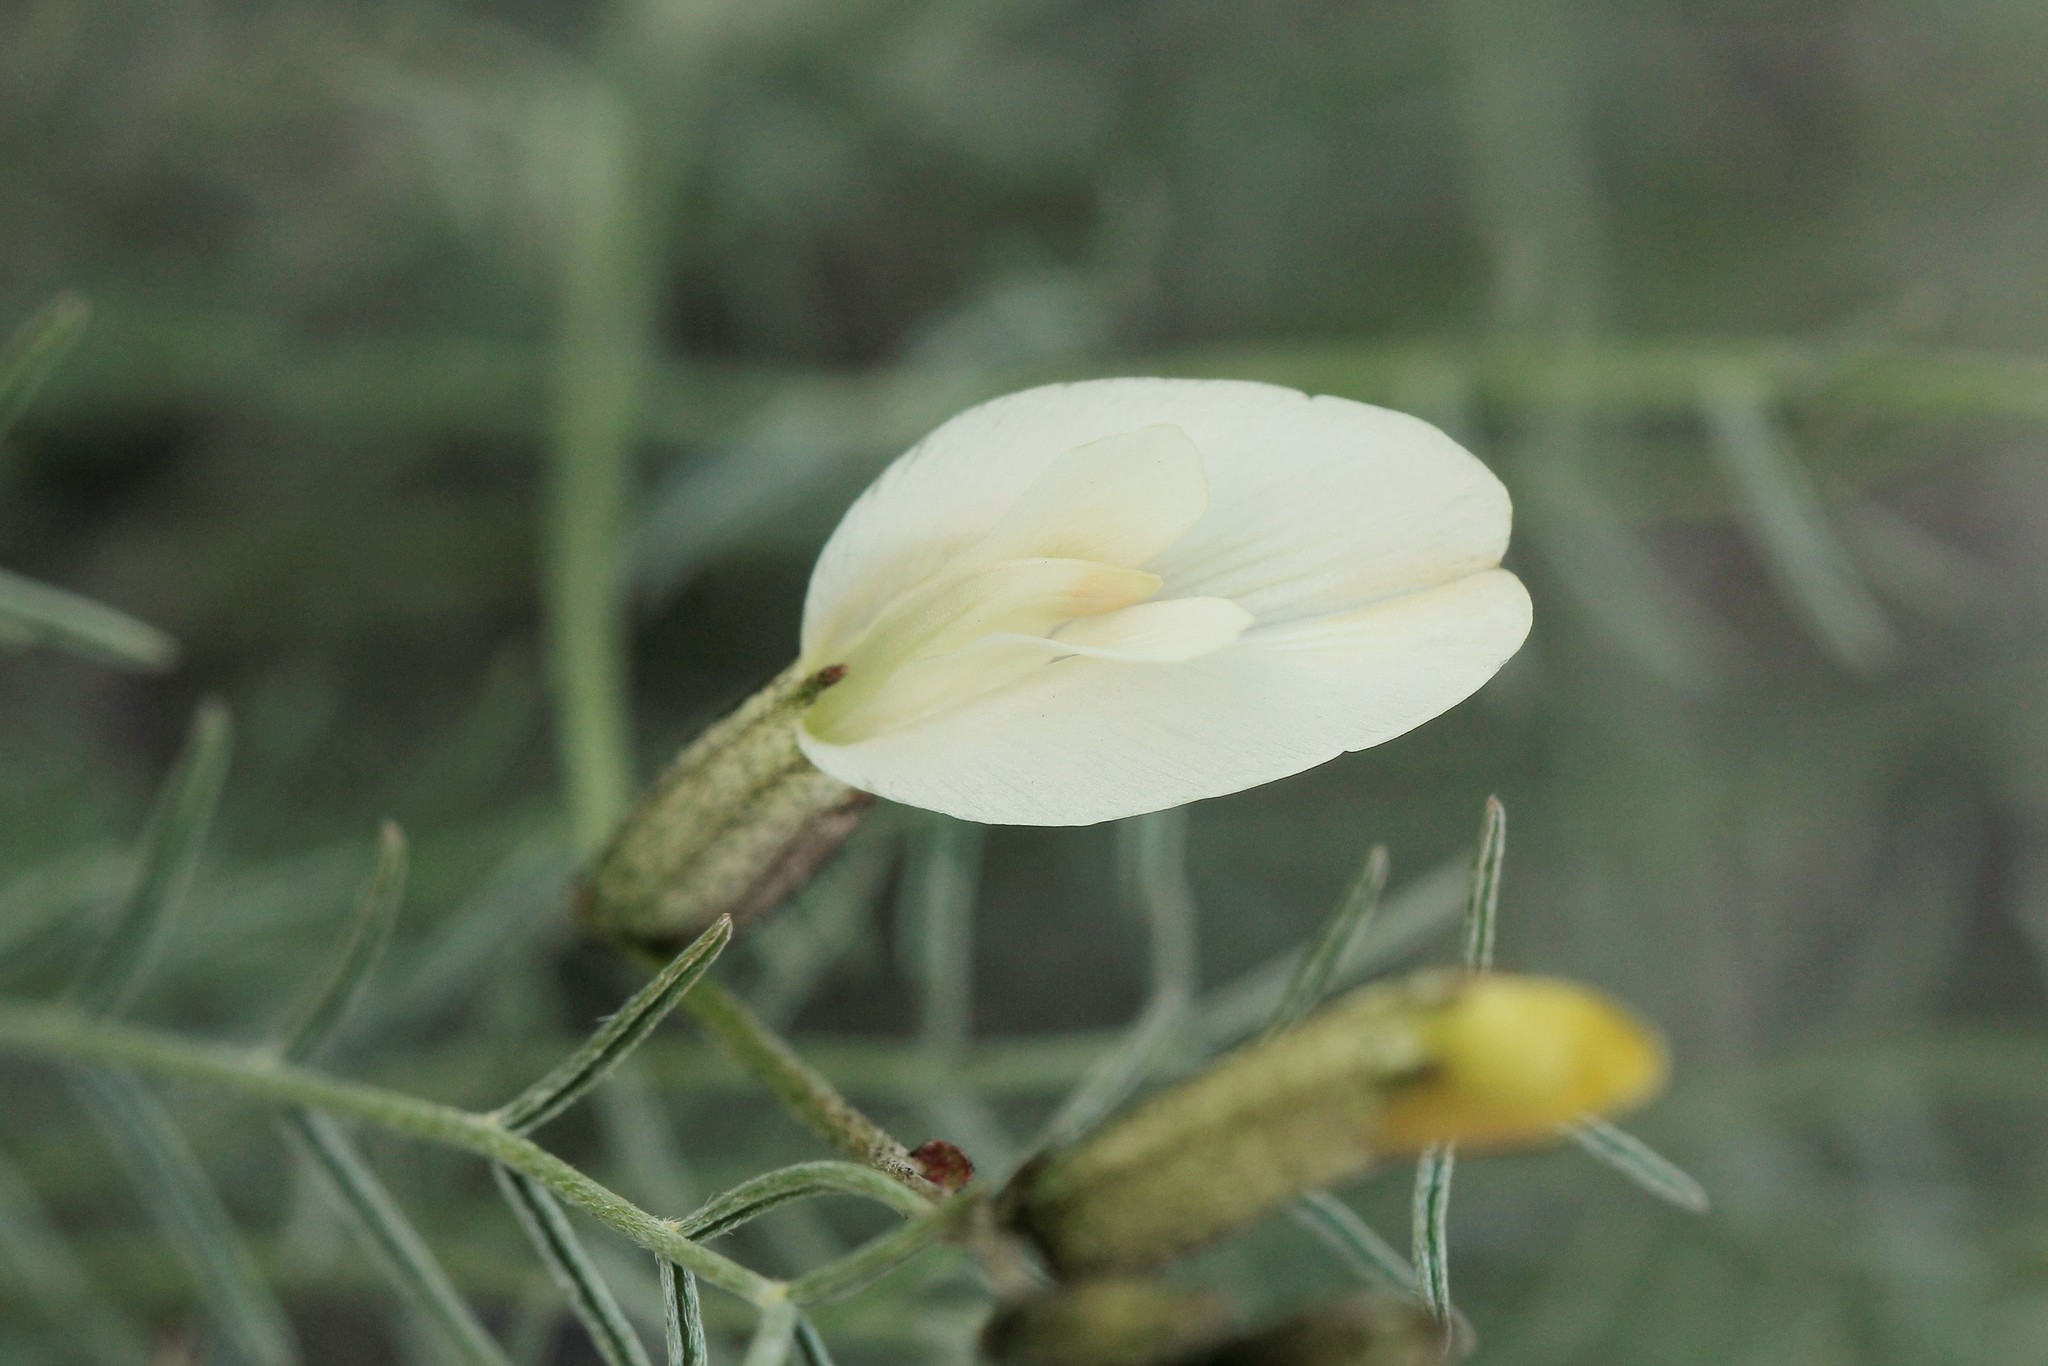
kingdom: Plantae
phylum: Tracheophyta
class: Magnoliopsida
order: Fabales
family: Fabaceae
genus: Astragalus
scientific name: Astragalus ucrainicus
